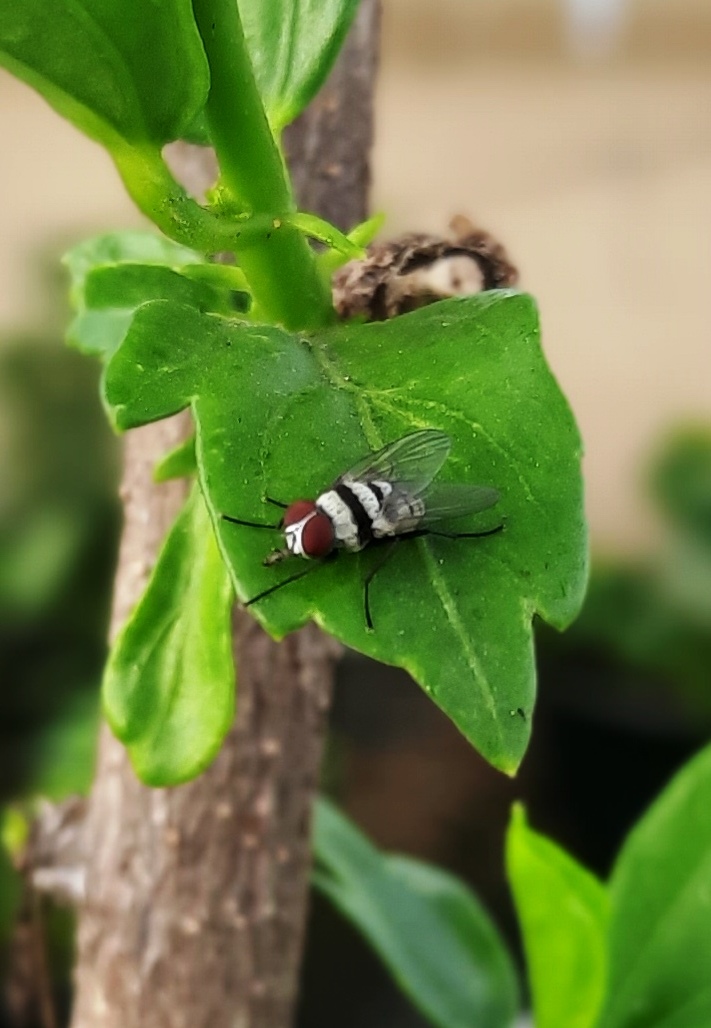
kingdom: Animalia
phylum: Arthropoda
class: Insecta
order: Diptera
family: Anthomyiidae
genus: Anthomyia
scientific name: Anthomyia illocata
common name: Fly
